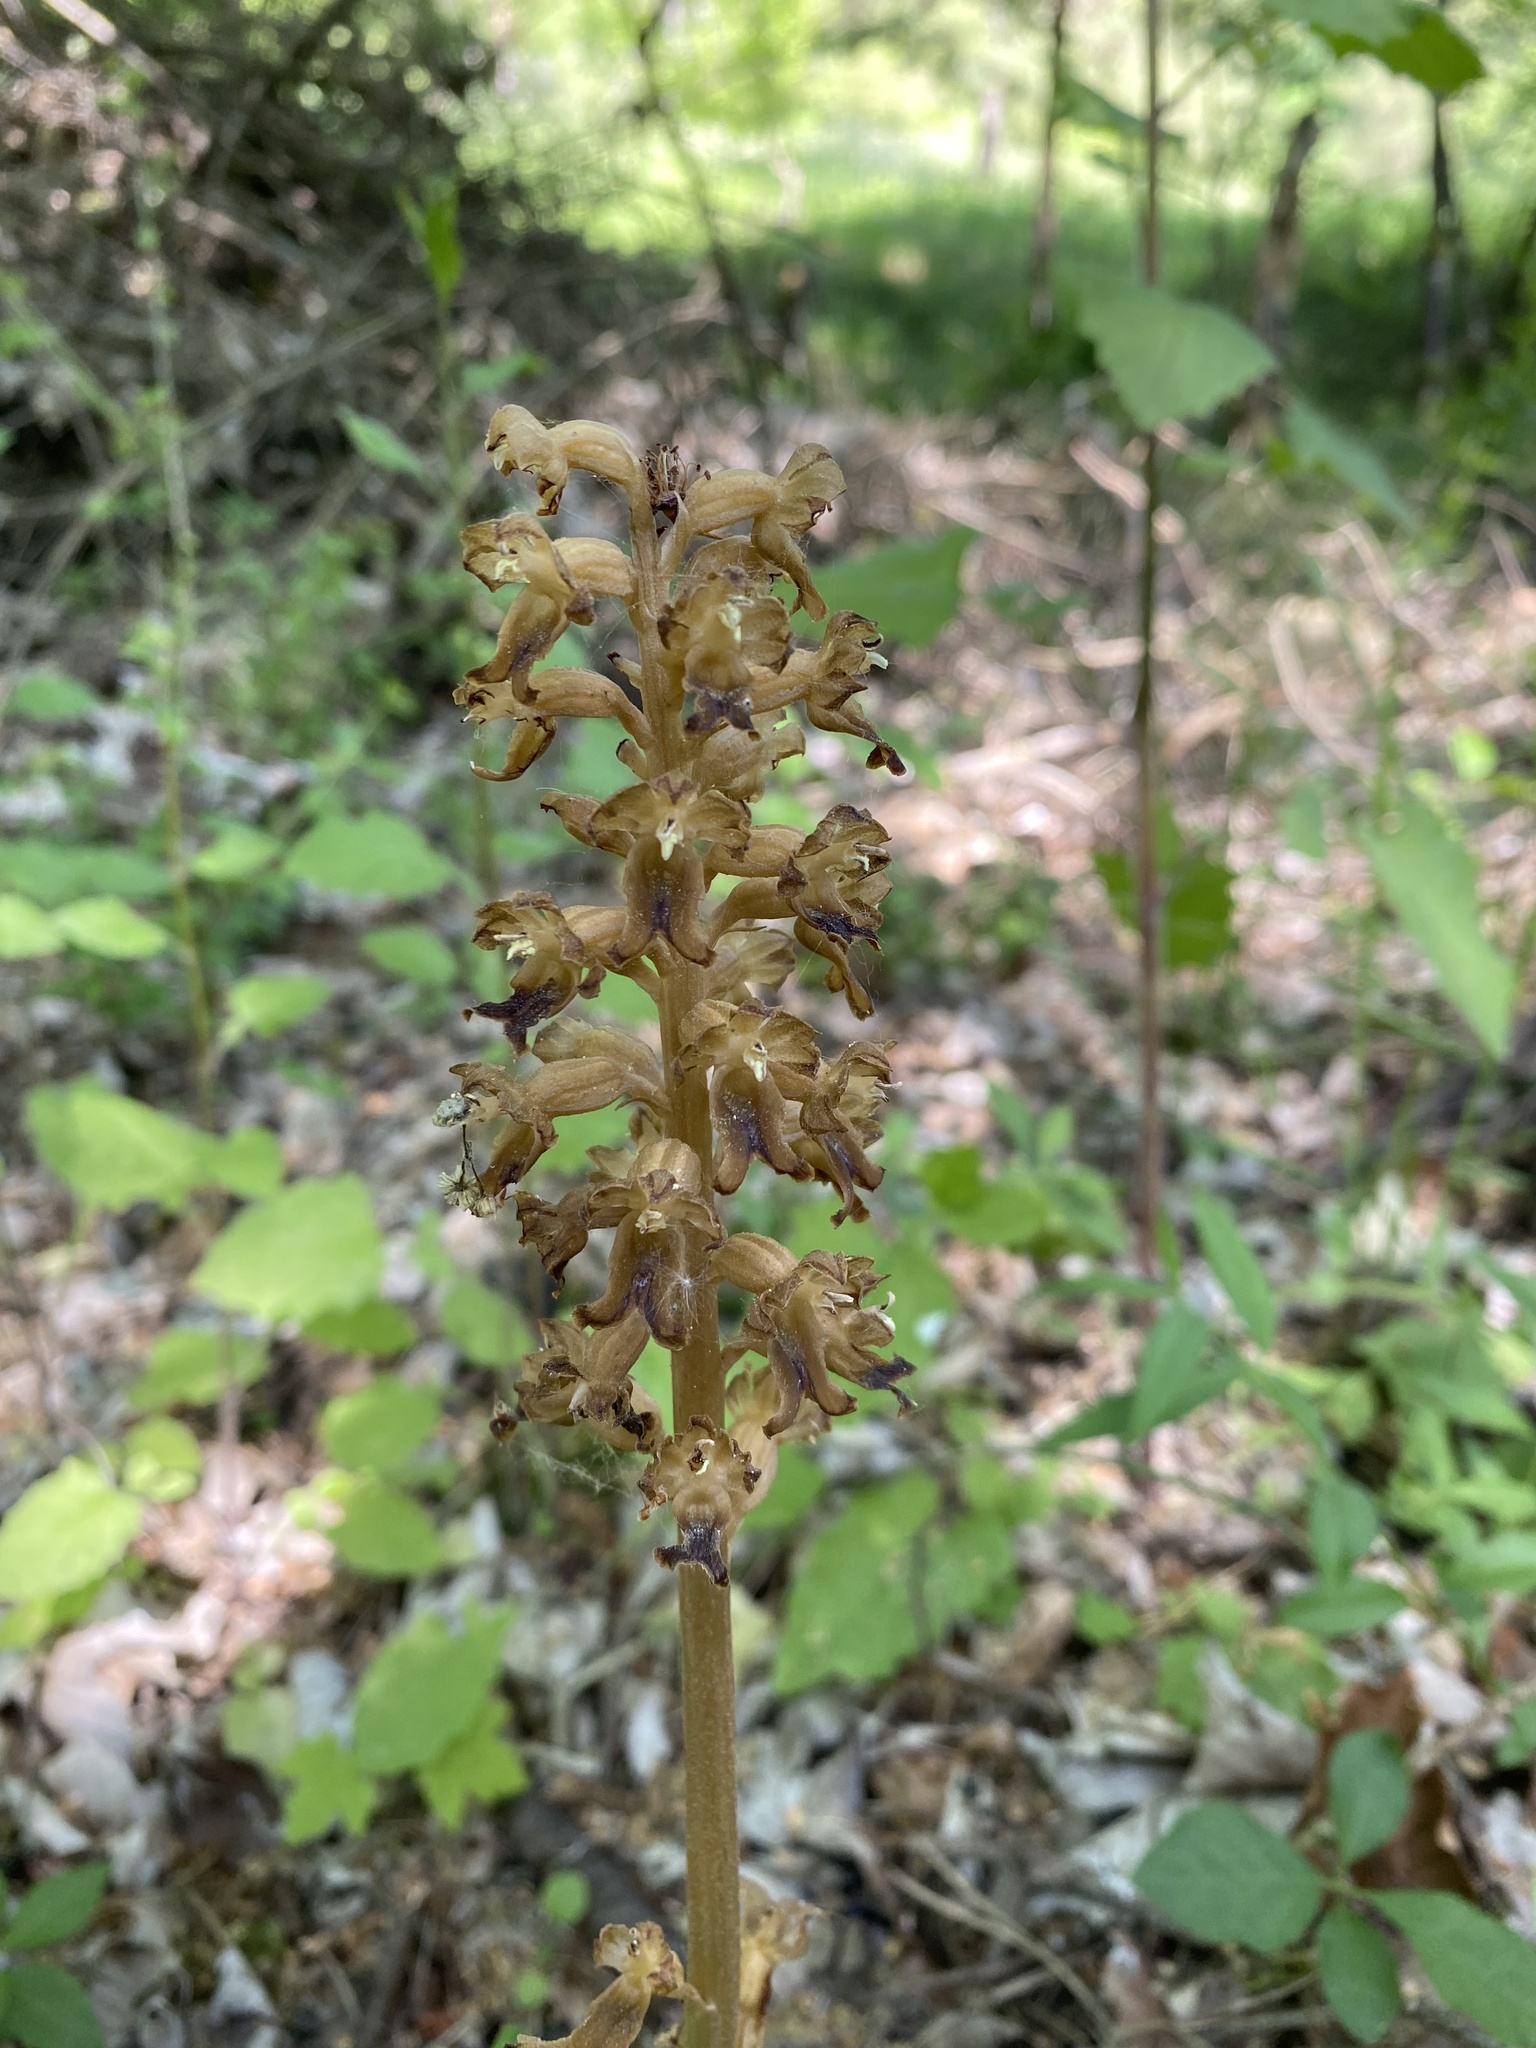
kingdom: Plantae
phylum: Tracheophyta
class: Liliopsida
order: Asparagales
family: Orchidaceae
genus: Neottia
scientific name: Neottia nidus-avis
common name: Bird's-nest orchid
